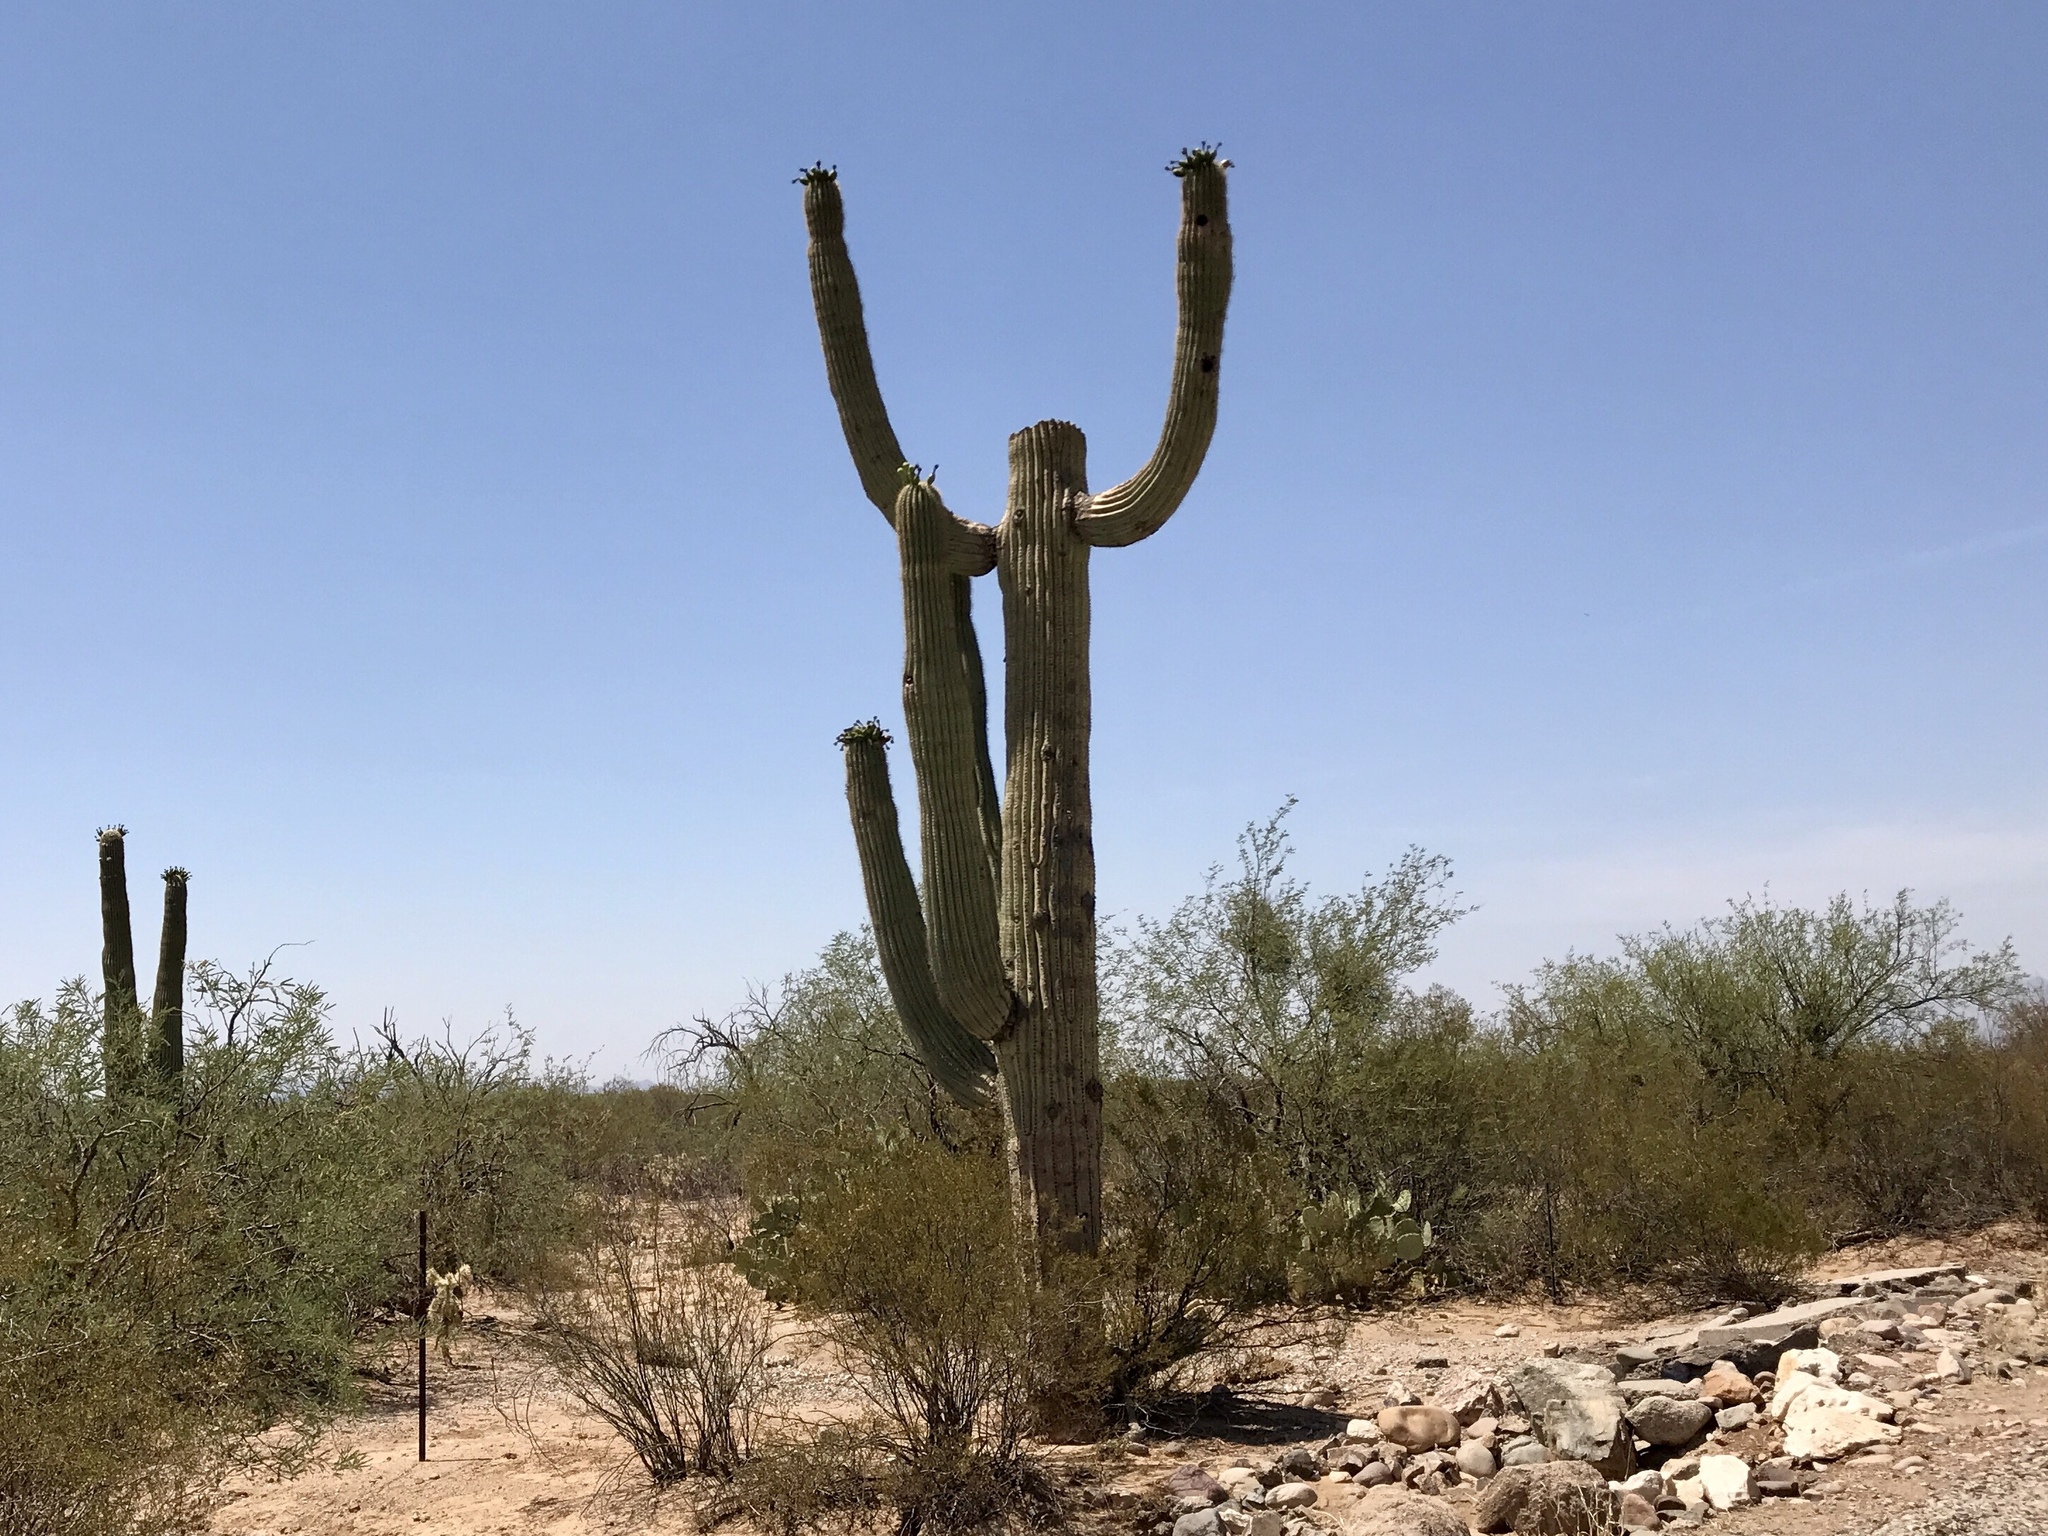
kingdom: Plantae
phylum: Tracheophyta
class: Magnoliopsida
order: Caryophyllales
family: Cactaceae
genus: Carnegiea
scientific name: Carnegiea gigantea
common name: Saguaro
